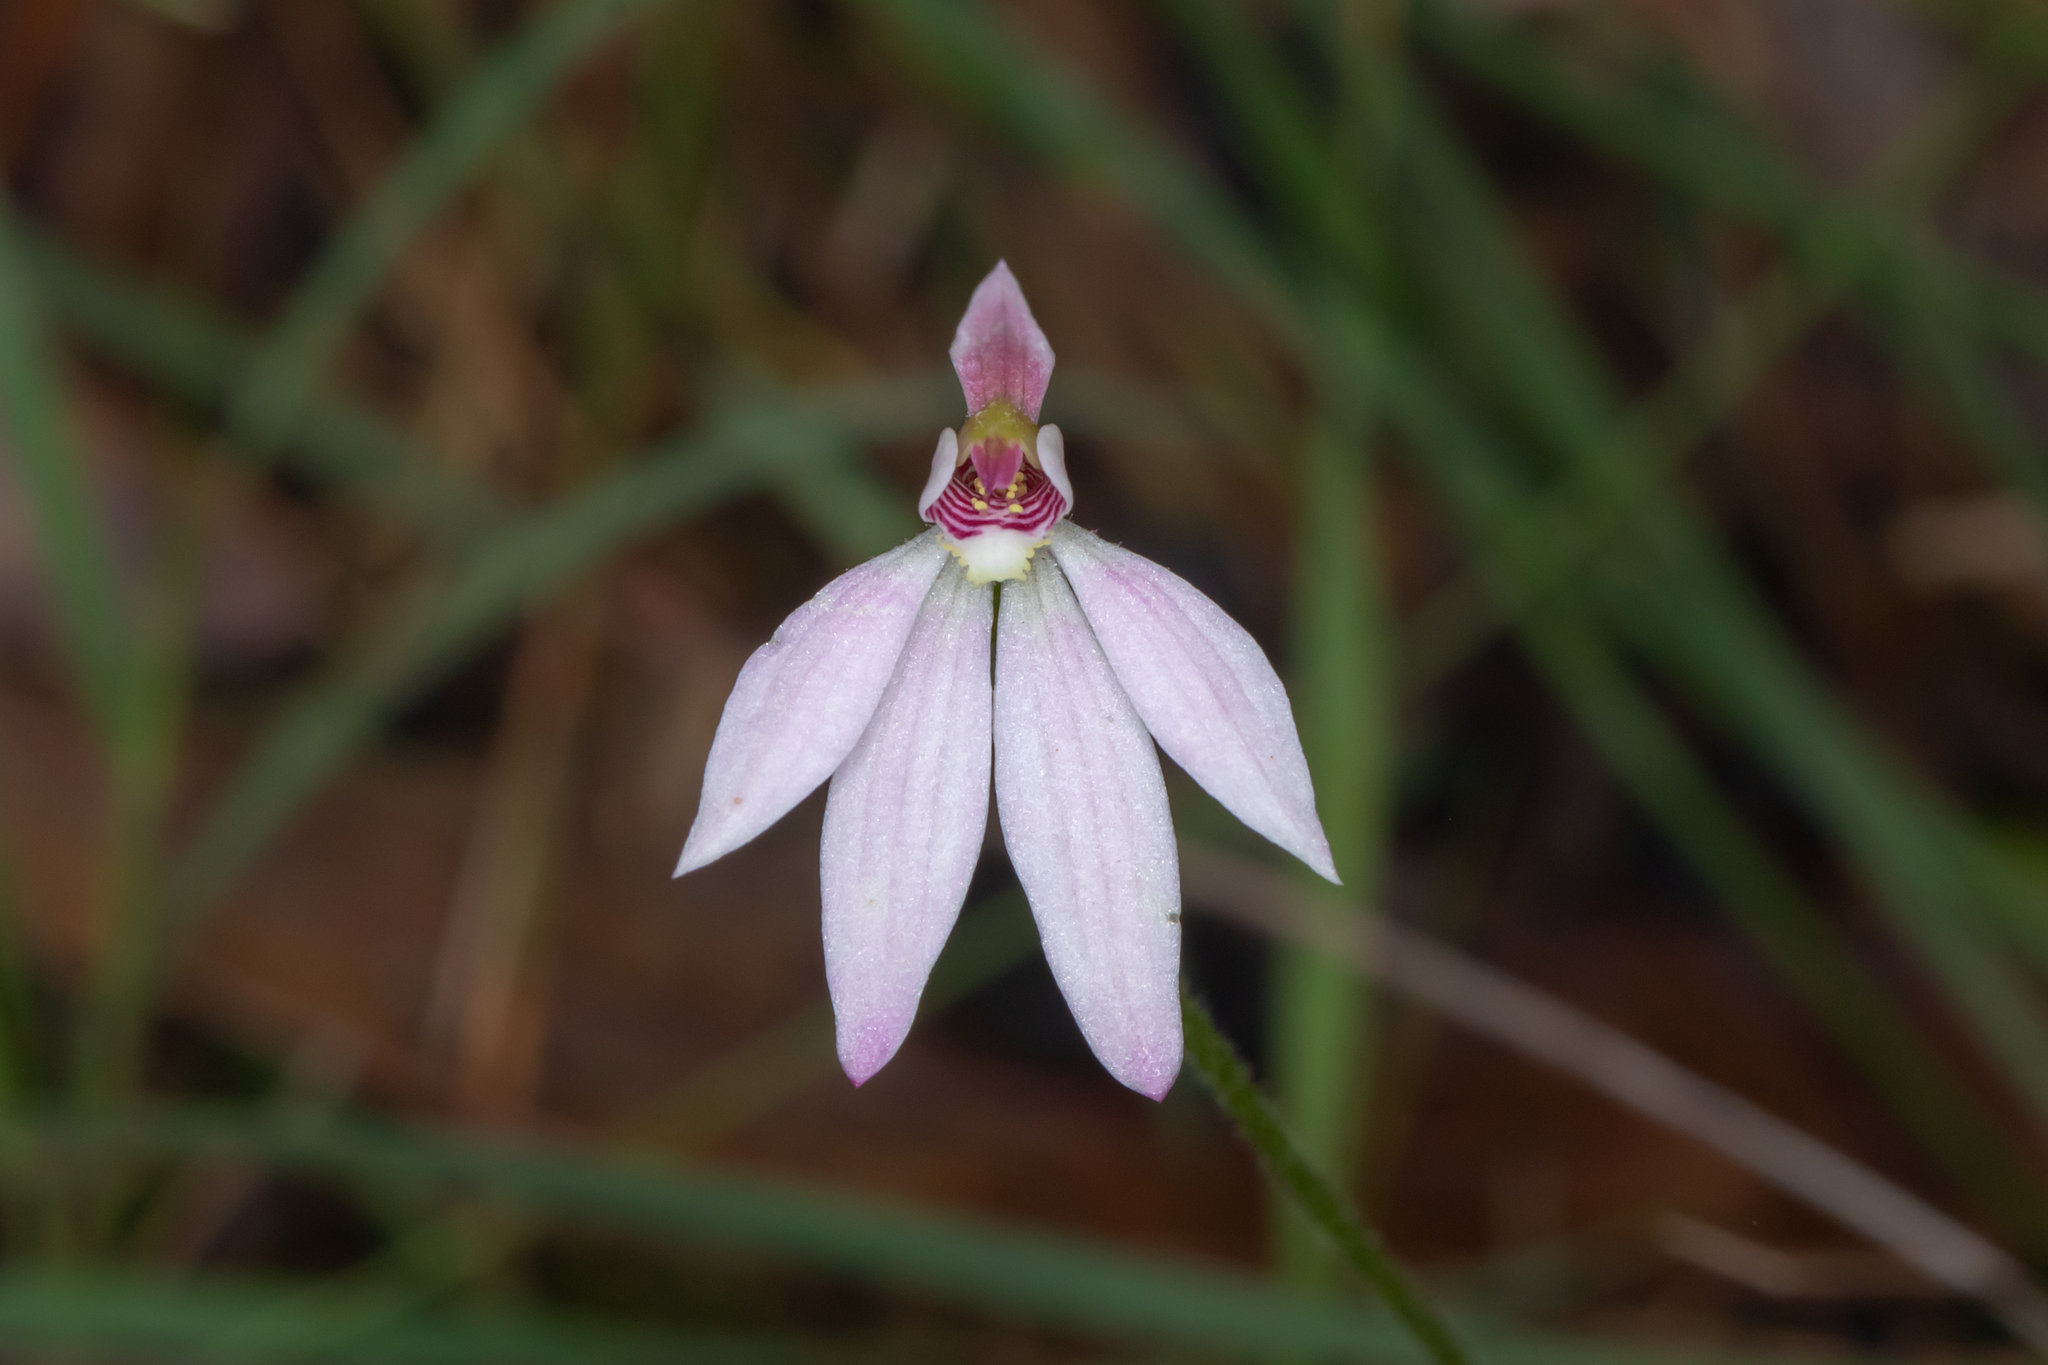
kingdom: Plantae
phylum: Tracheophyta
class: Liliopsida
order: Asparagales
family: Orchidaceae
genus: Caladenia
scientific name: Caladenia carnea
